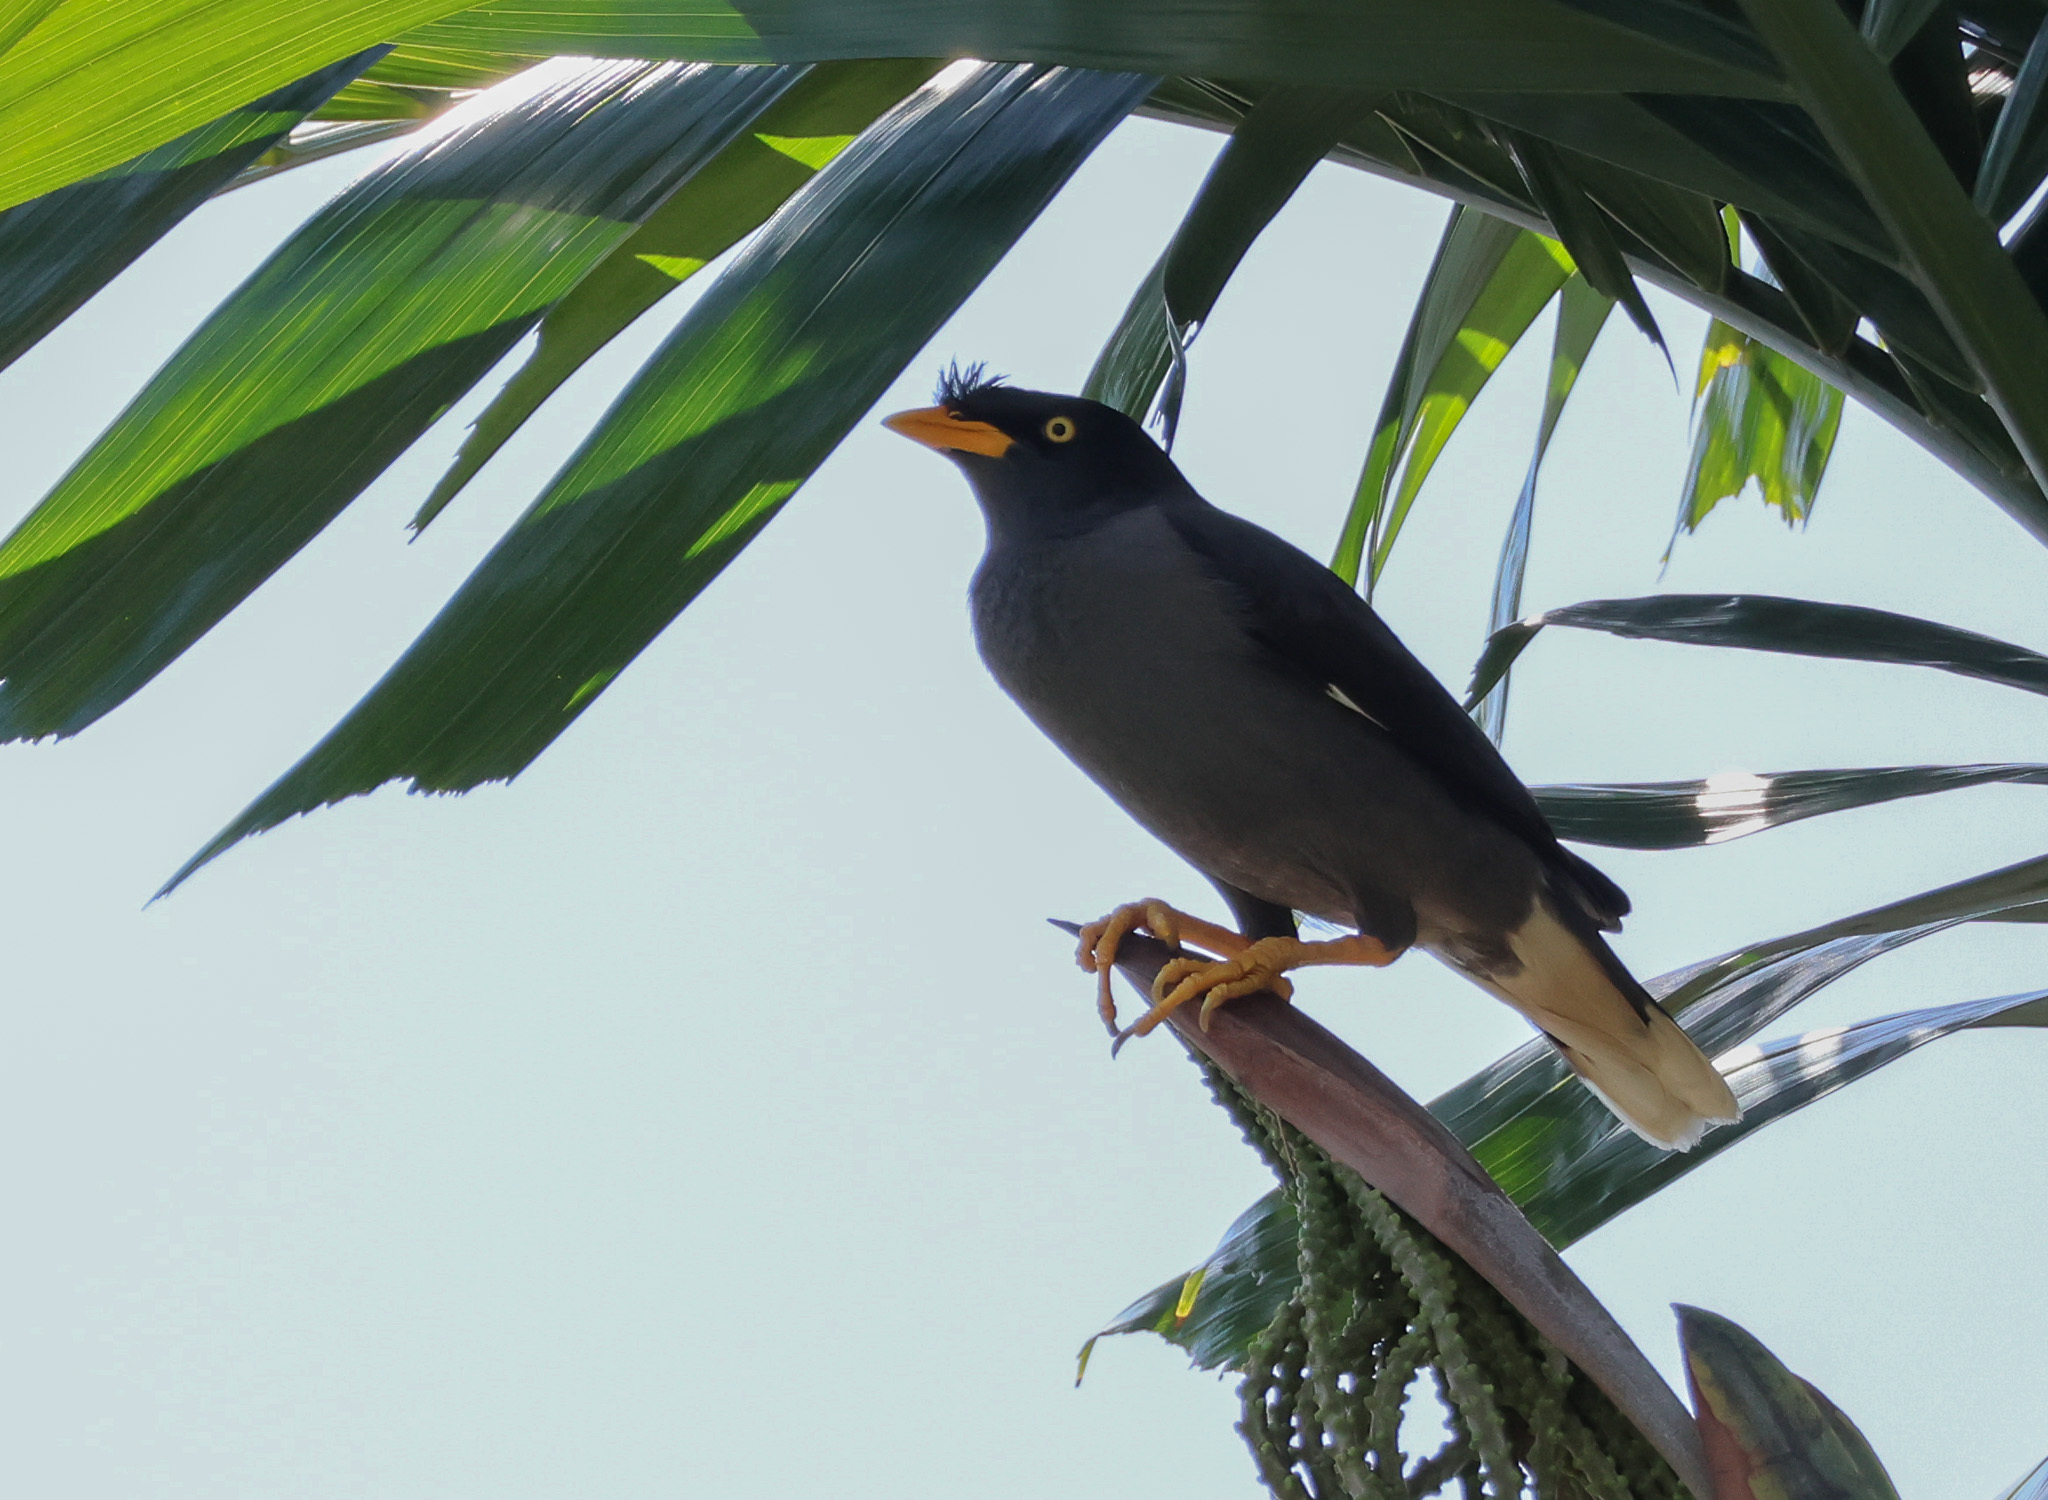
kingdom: Animalia
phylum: Chordata
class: Aves
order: Passeriformes
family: Sturnidae
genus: Acridotheres
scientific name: Acridotheres javanicus
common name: Javan myna
